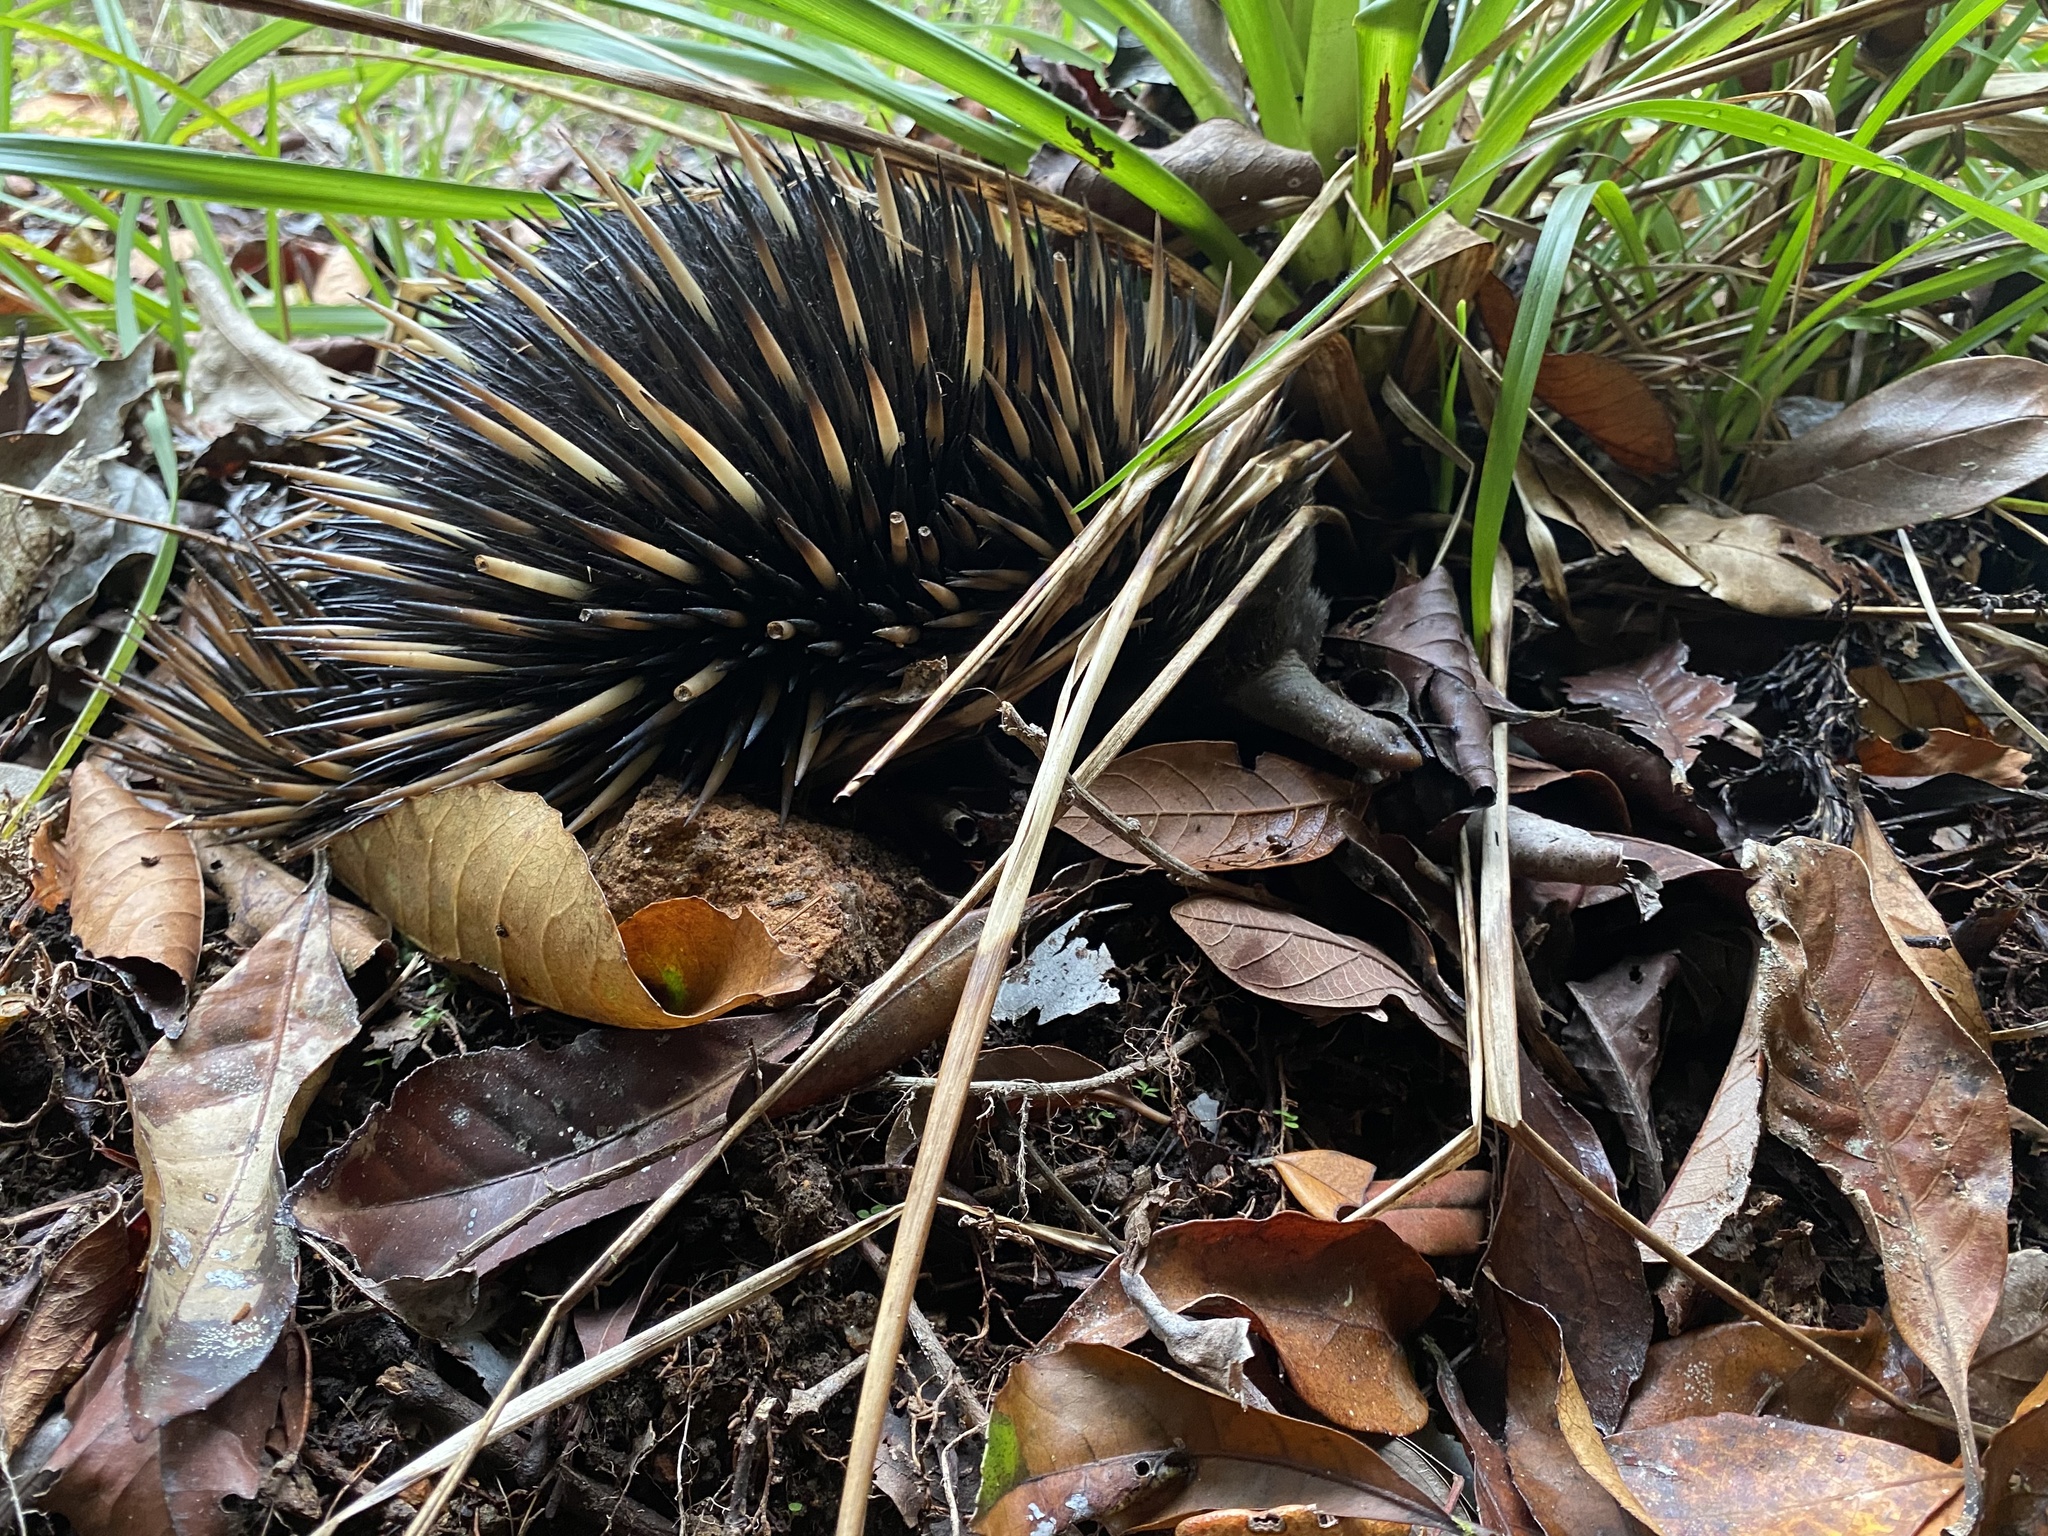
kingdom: Animalia
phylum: Chordata
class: Mammalia
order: Monotremata
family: Tachyglossidae
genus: Tachyglossus
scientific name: Tachyglossus aculeatus
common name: Short-beaked echidna
